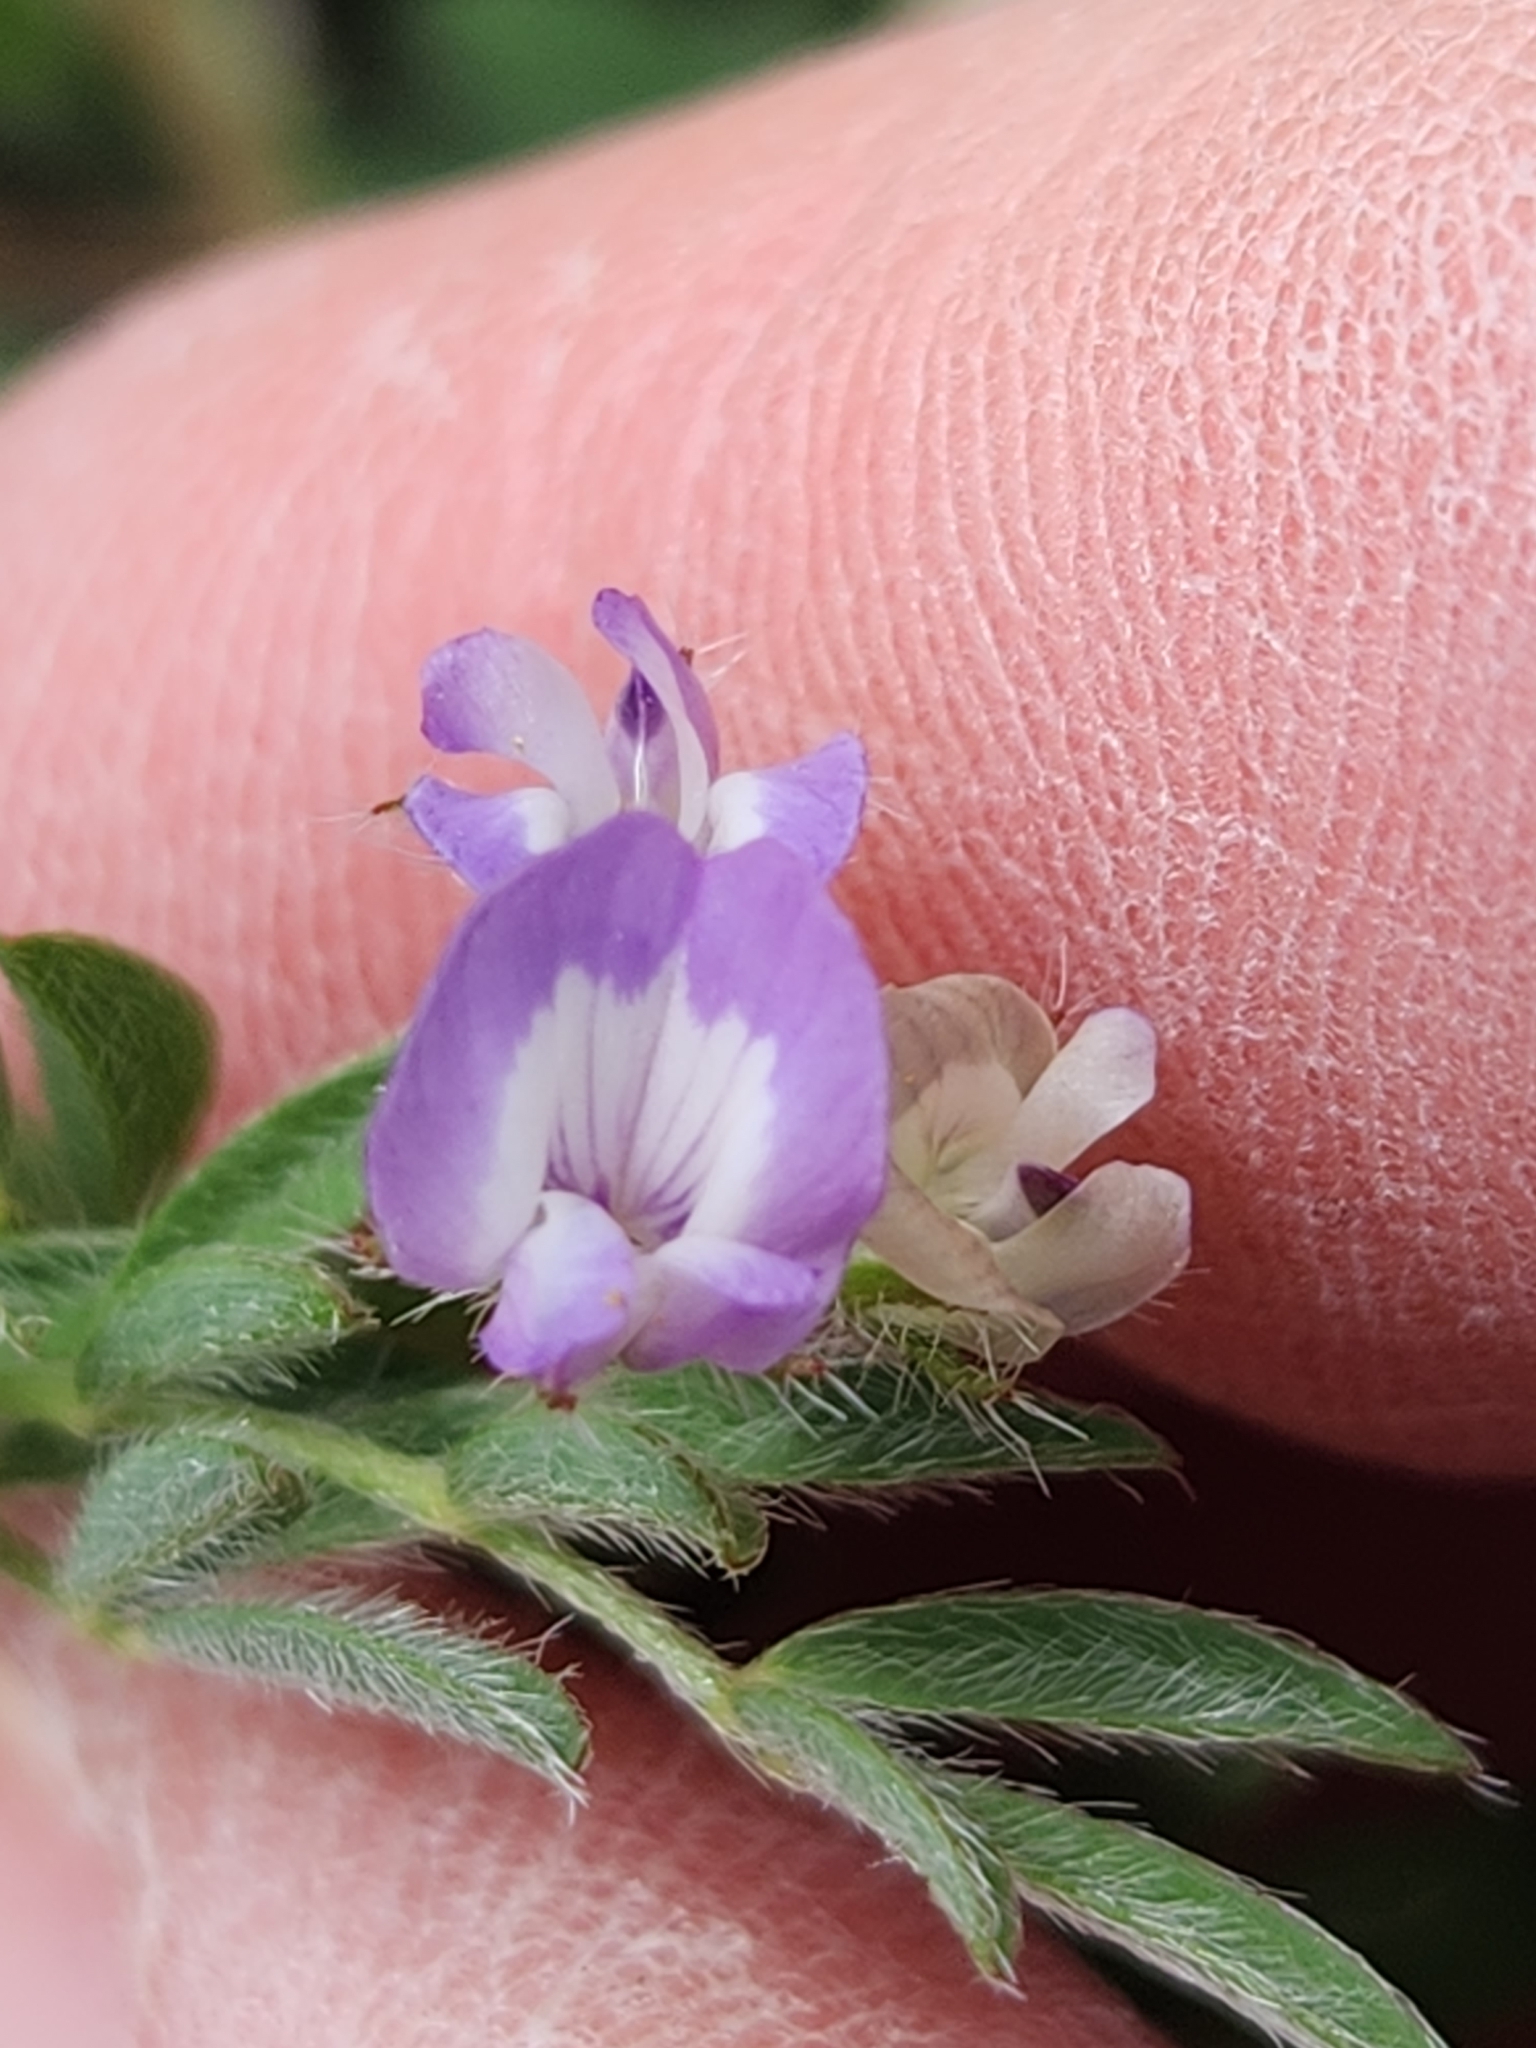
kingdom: Plantae
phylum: Tracheophyta
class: Magnoliopsida
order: Fabales
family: Fabaceae
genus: Astragalus
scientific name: Astragalus nuttallianus
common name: Smallflowered milkvetch
